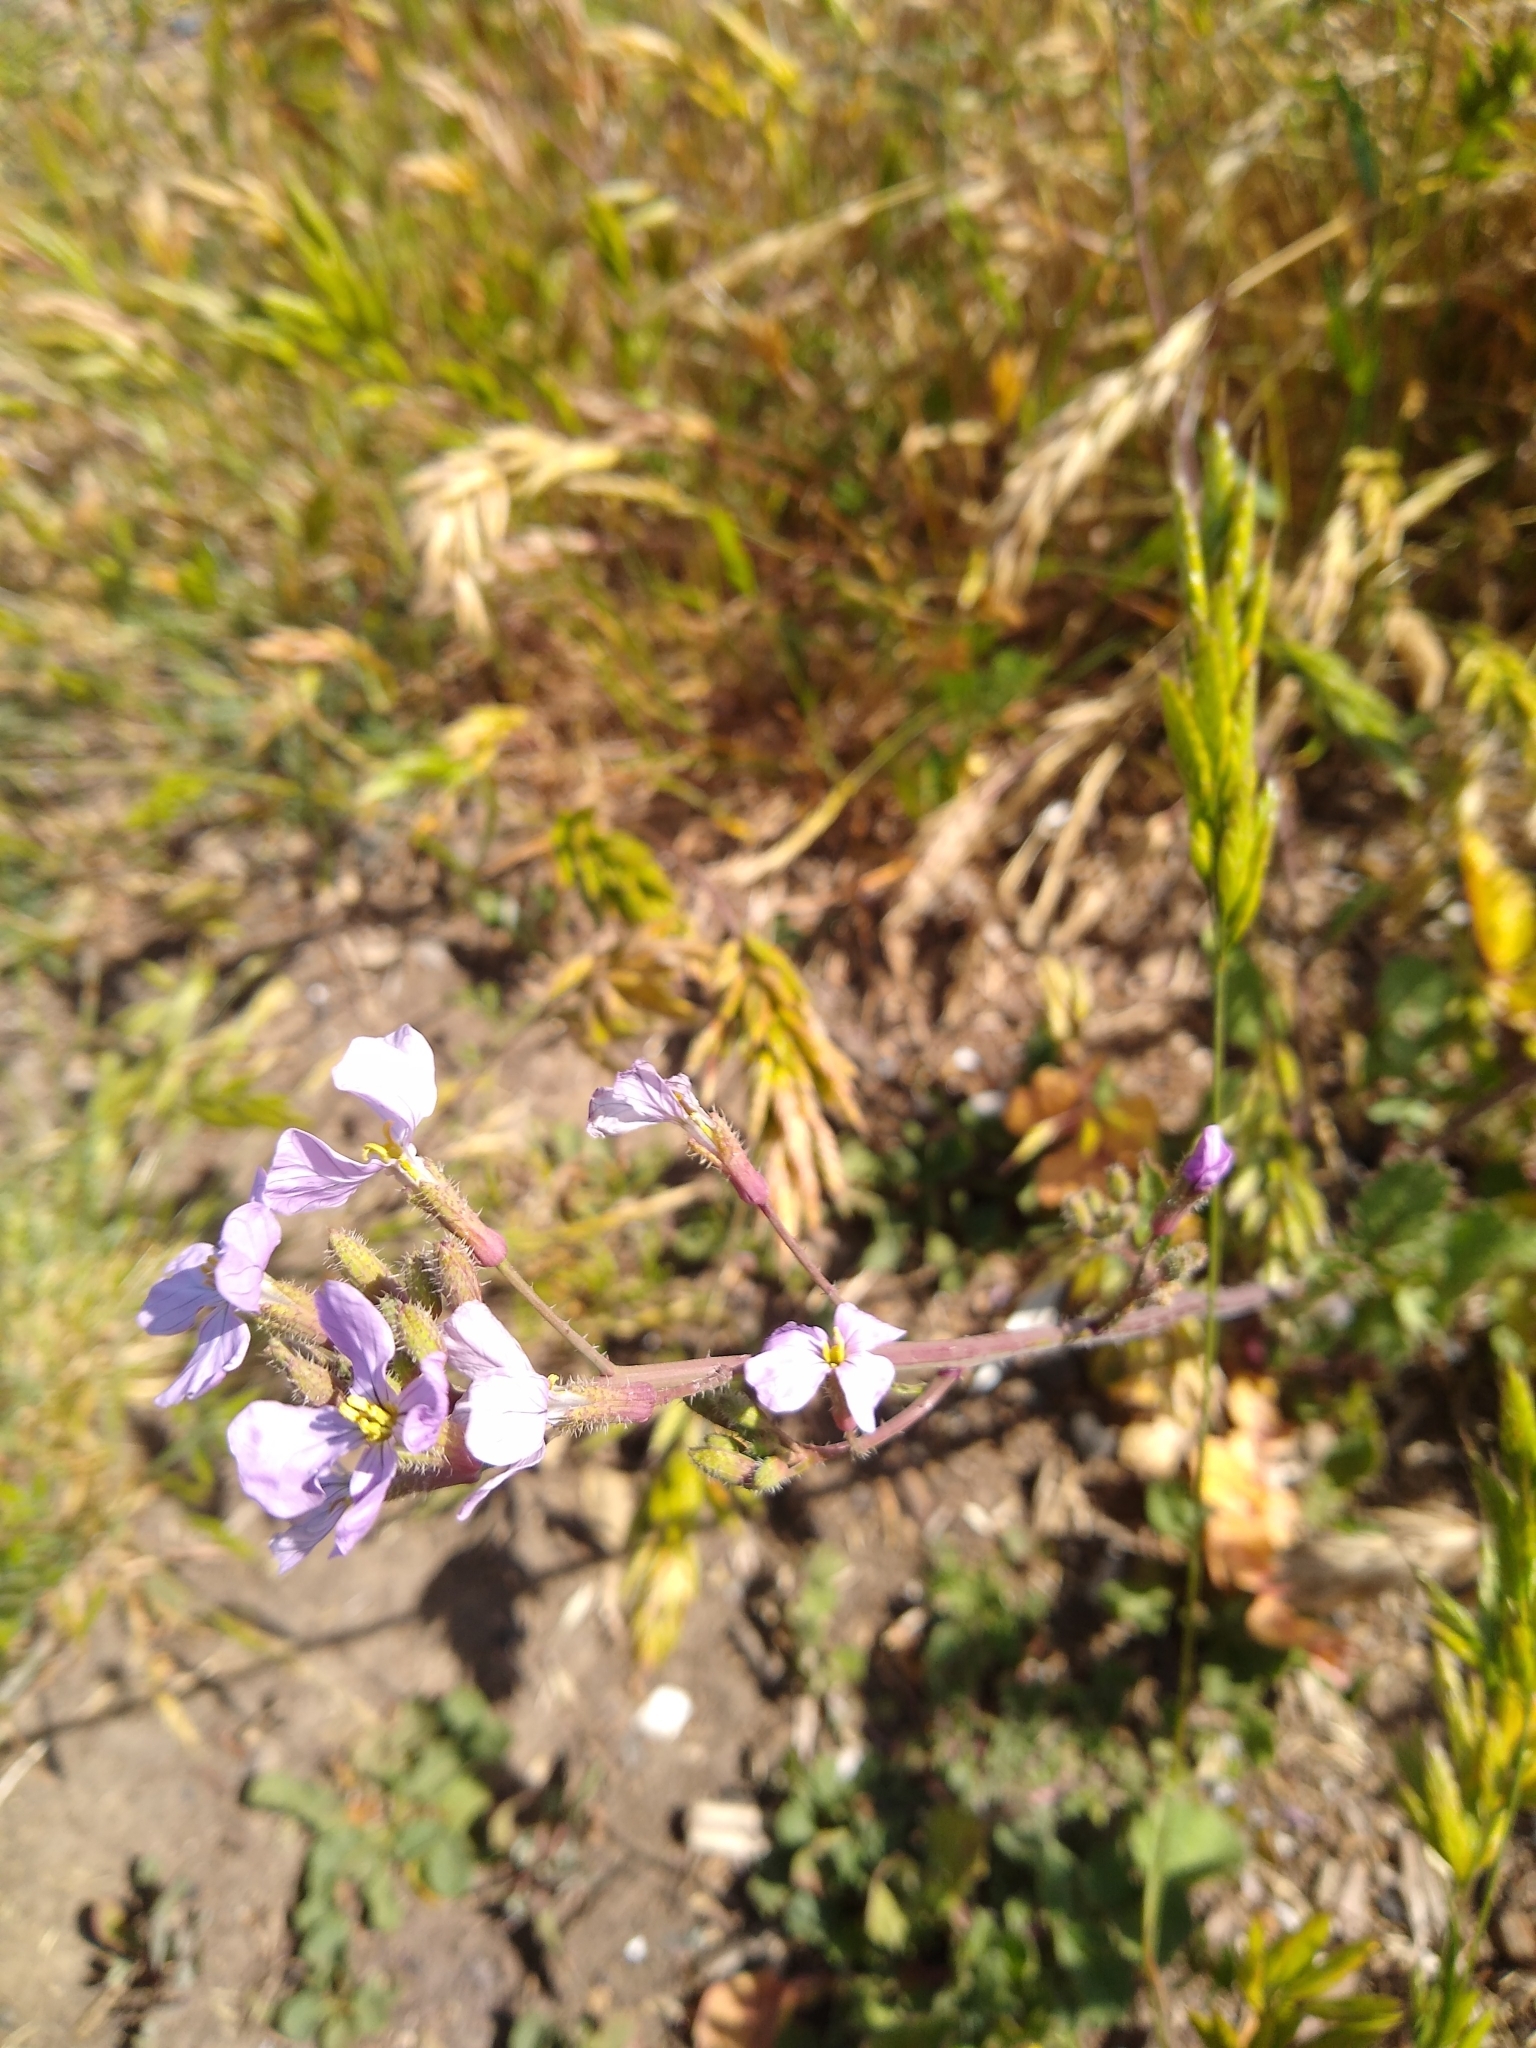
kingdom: Plantae
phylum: Tracheophyta
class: Magnoliopsida
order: Brassicales
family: Brassicaceae
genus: Raphanus
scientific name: Raphanus sativus
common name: Cultivated radish
